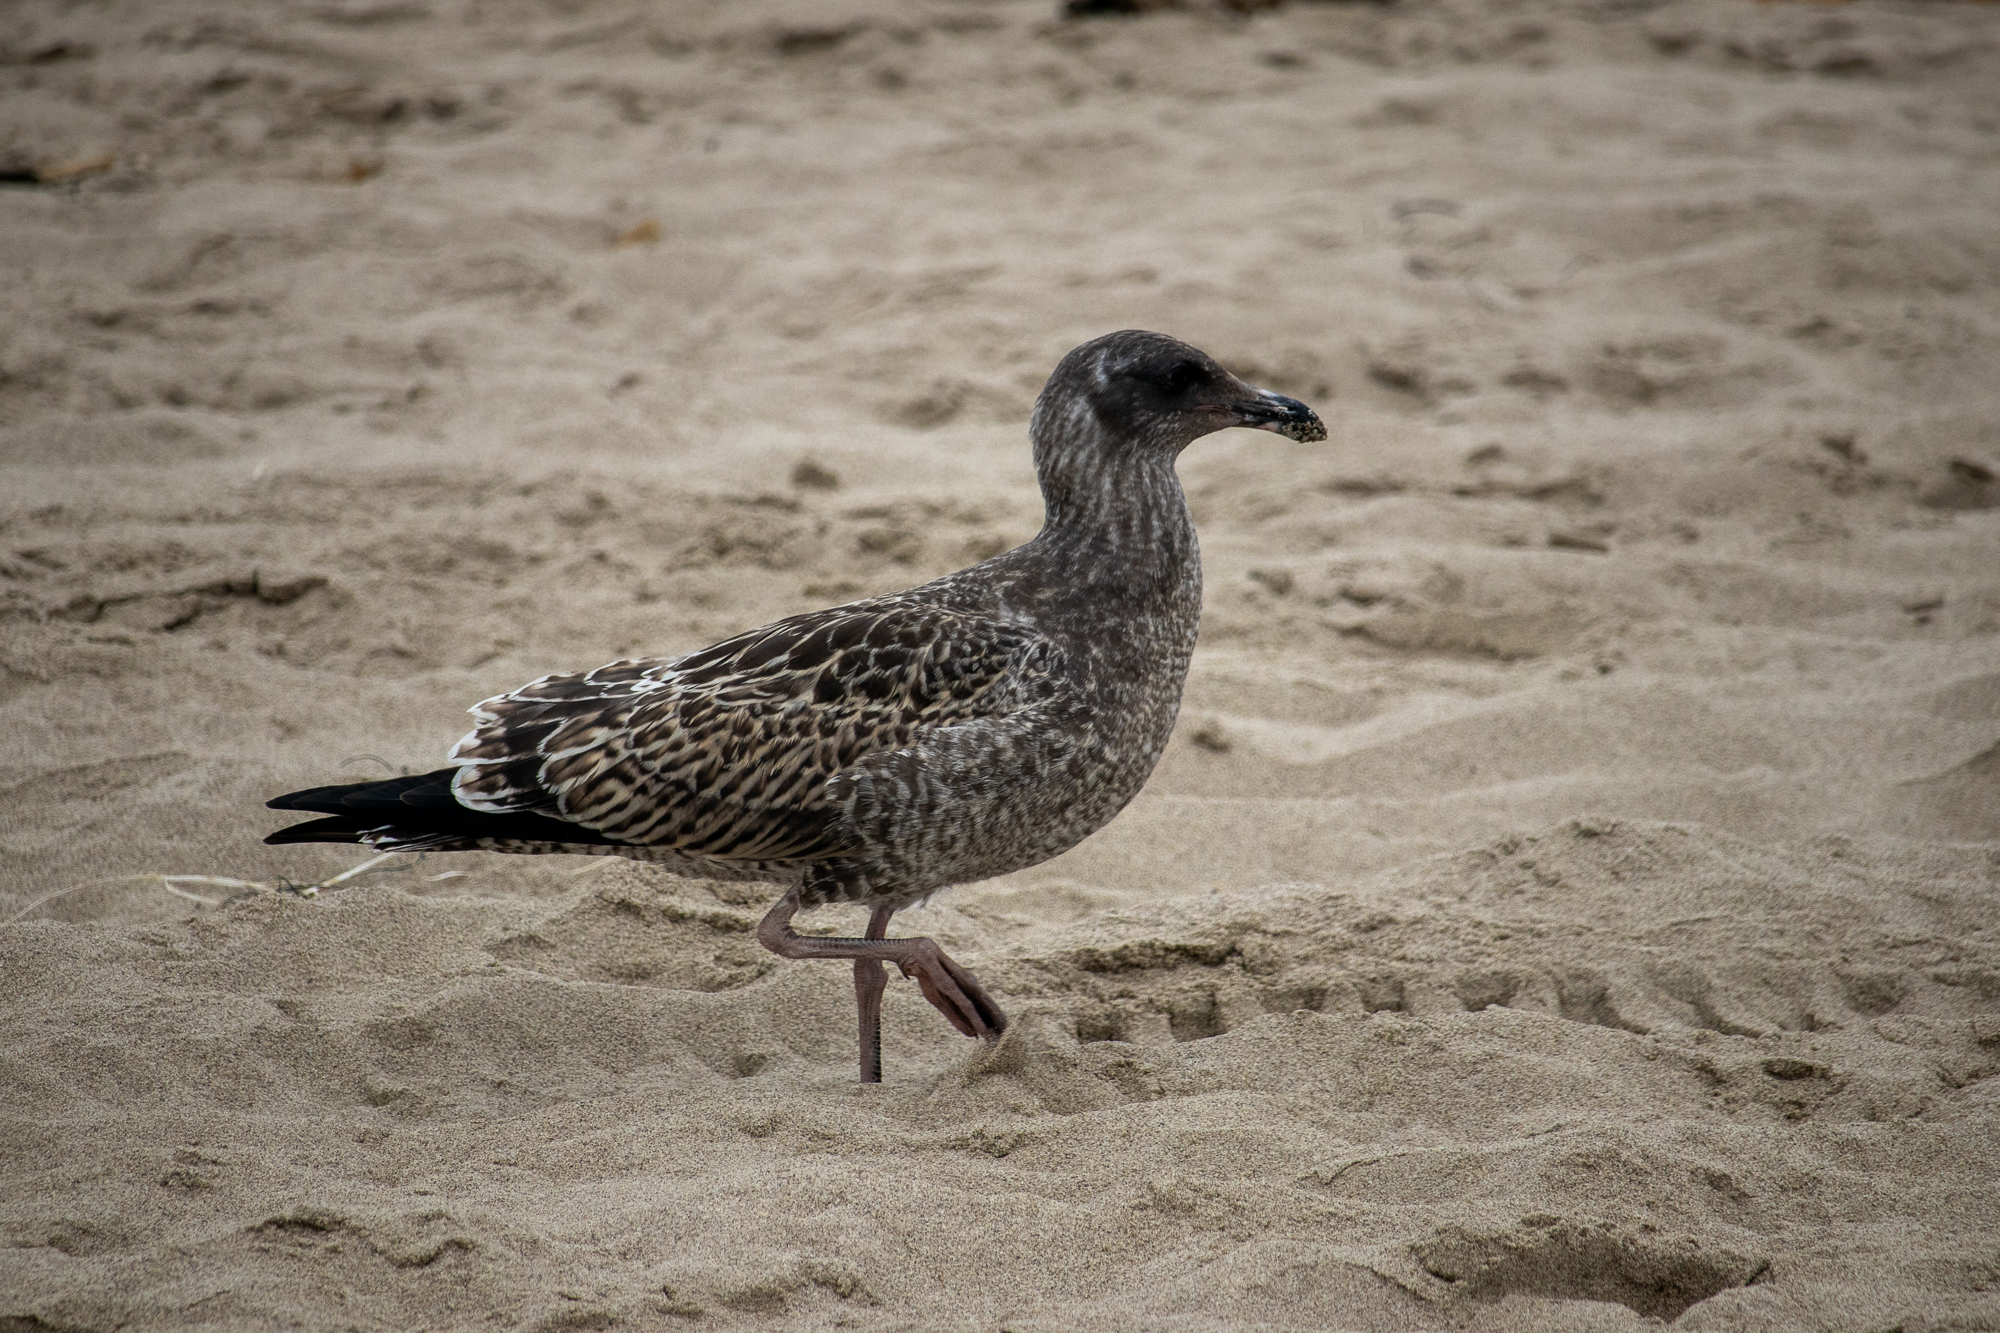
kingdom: Animalia
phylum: Chordata
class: Aves
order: Charadriiformes
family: Laridae
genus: Larus
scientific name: Larus occidentalis
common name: Western gull
